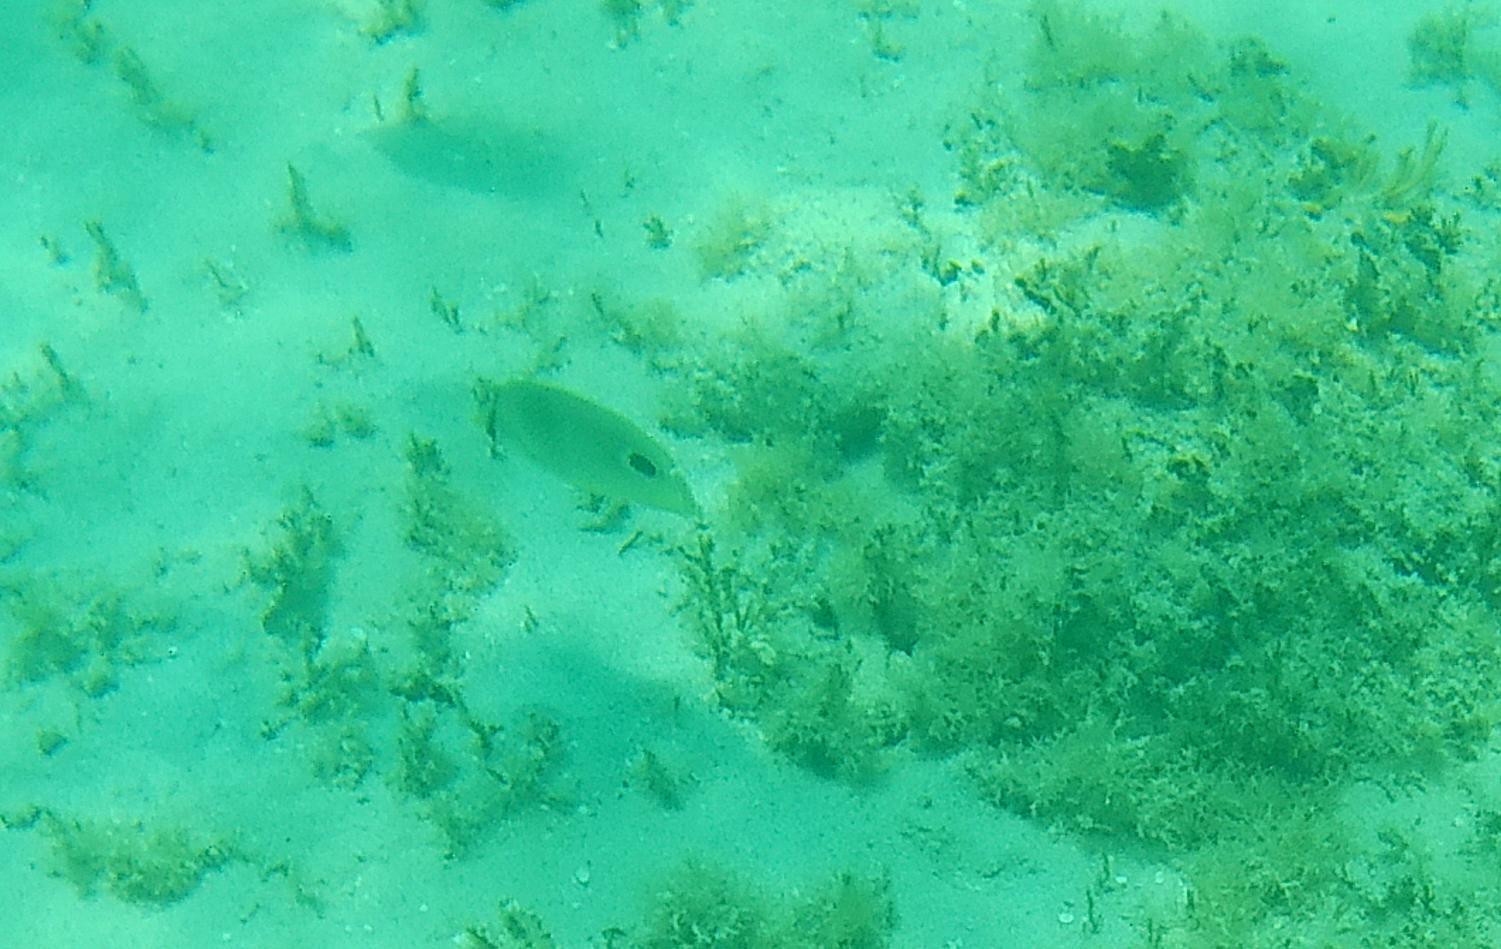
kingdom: Animalia
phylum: Chordata
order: Perciformes
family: Chaetodontidae
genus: Chaetodon
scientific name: Chaetodon capistratus
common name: Kete
